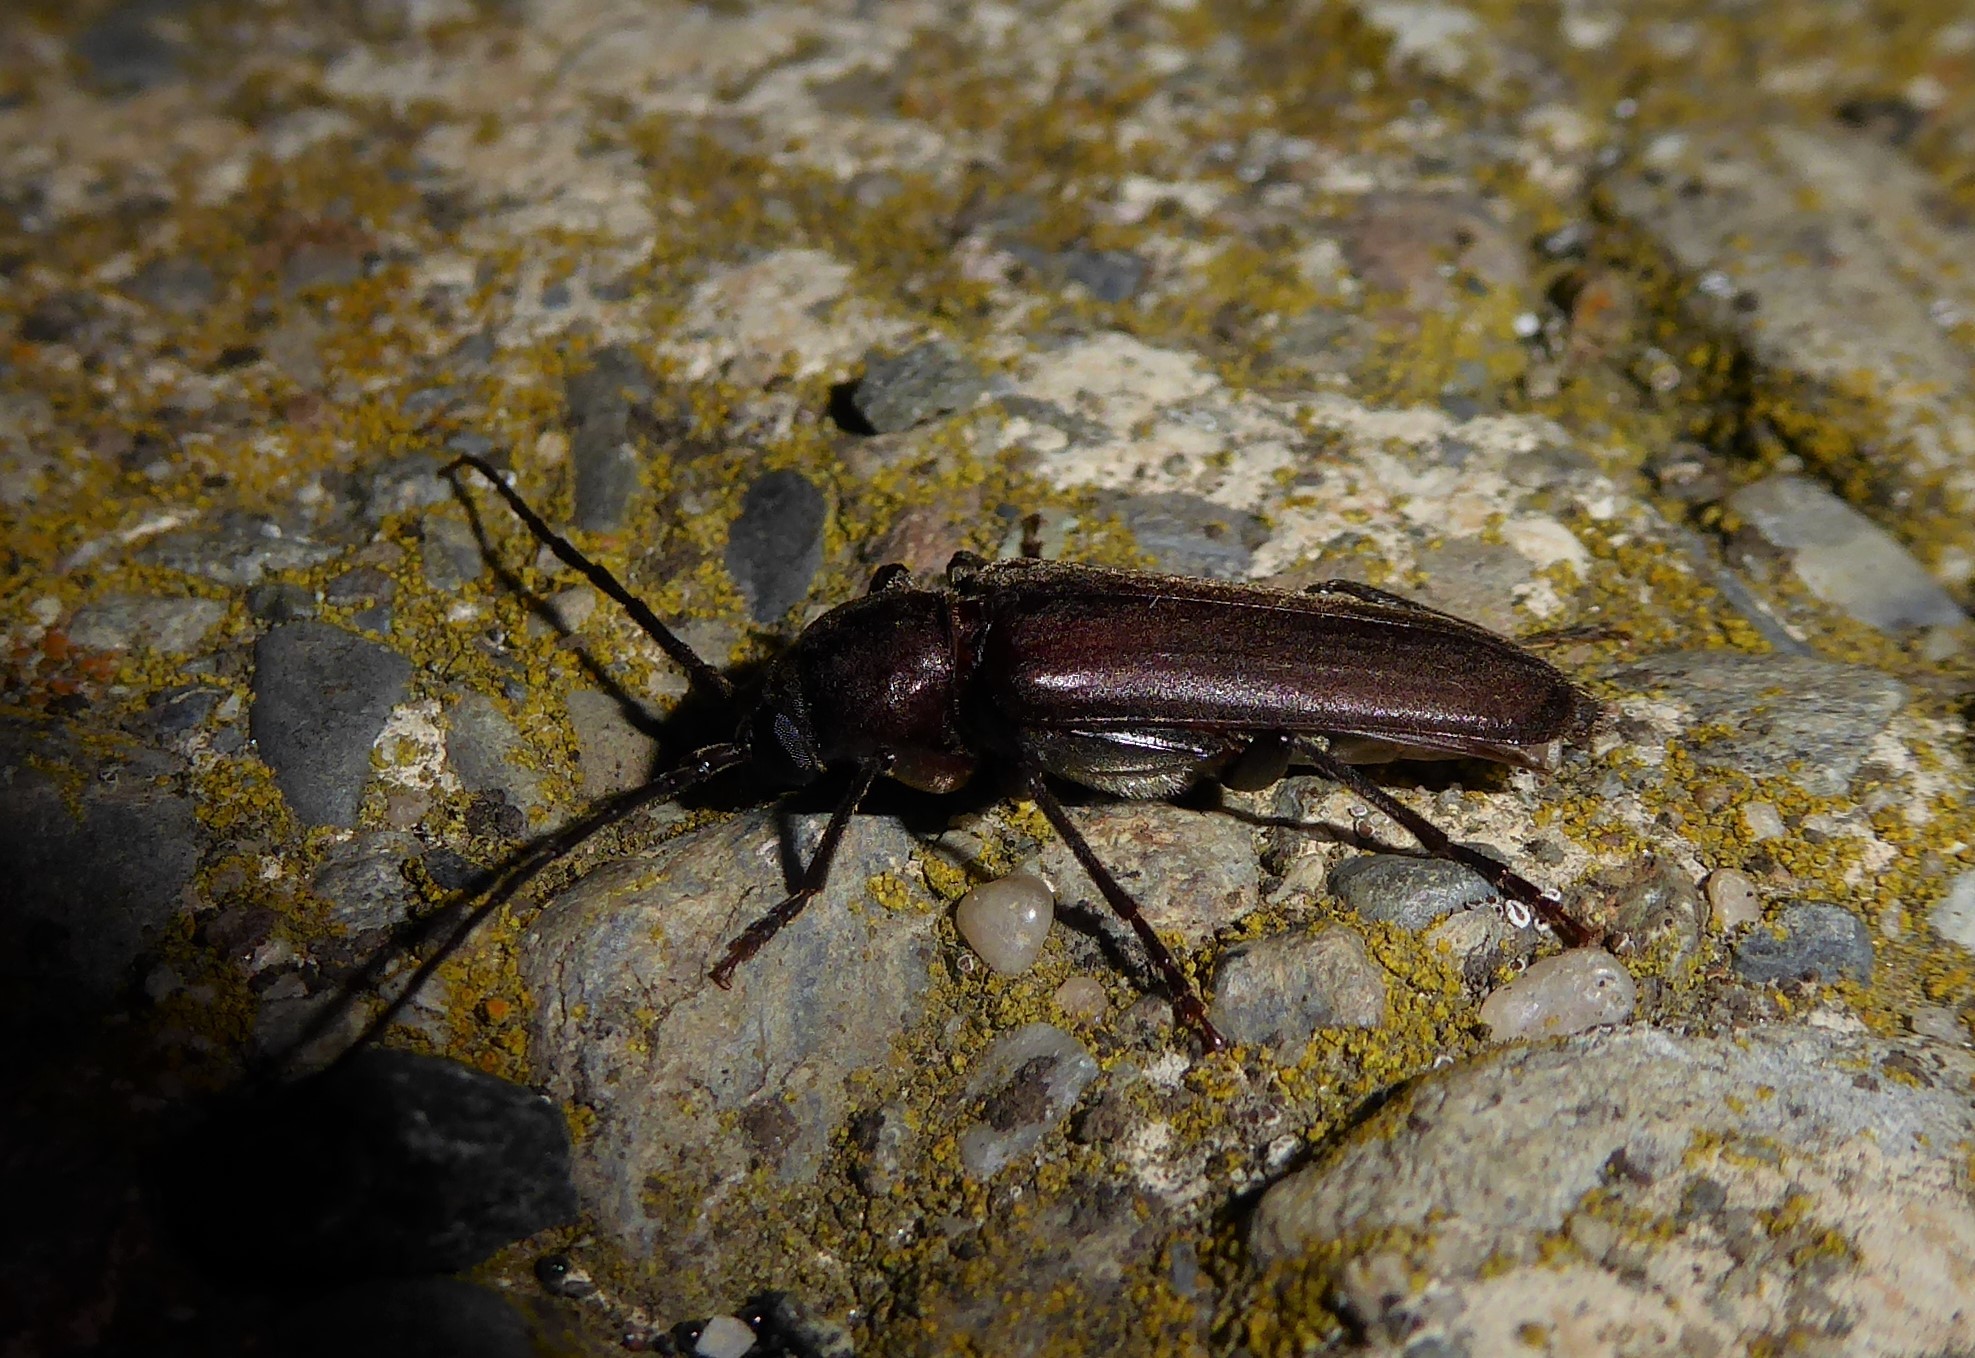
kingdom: Animalia
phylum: Arthropoda
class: Insecta
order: Coleoptera
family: Cerambycidae
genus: Arhopalus
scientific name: Arhopalus ferus
